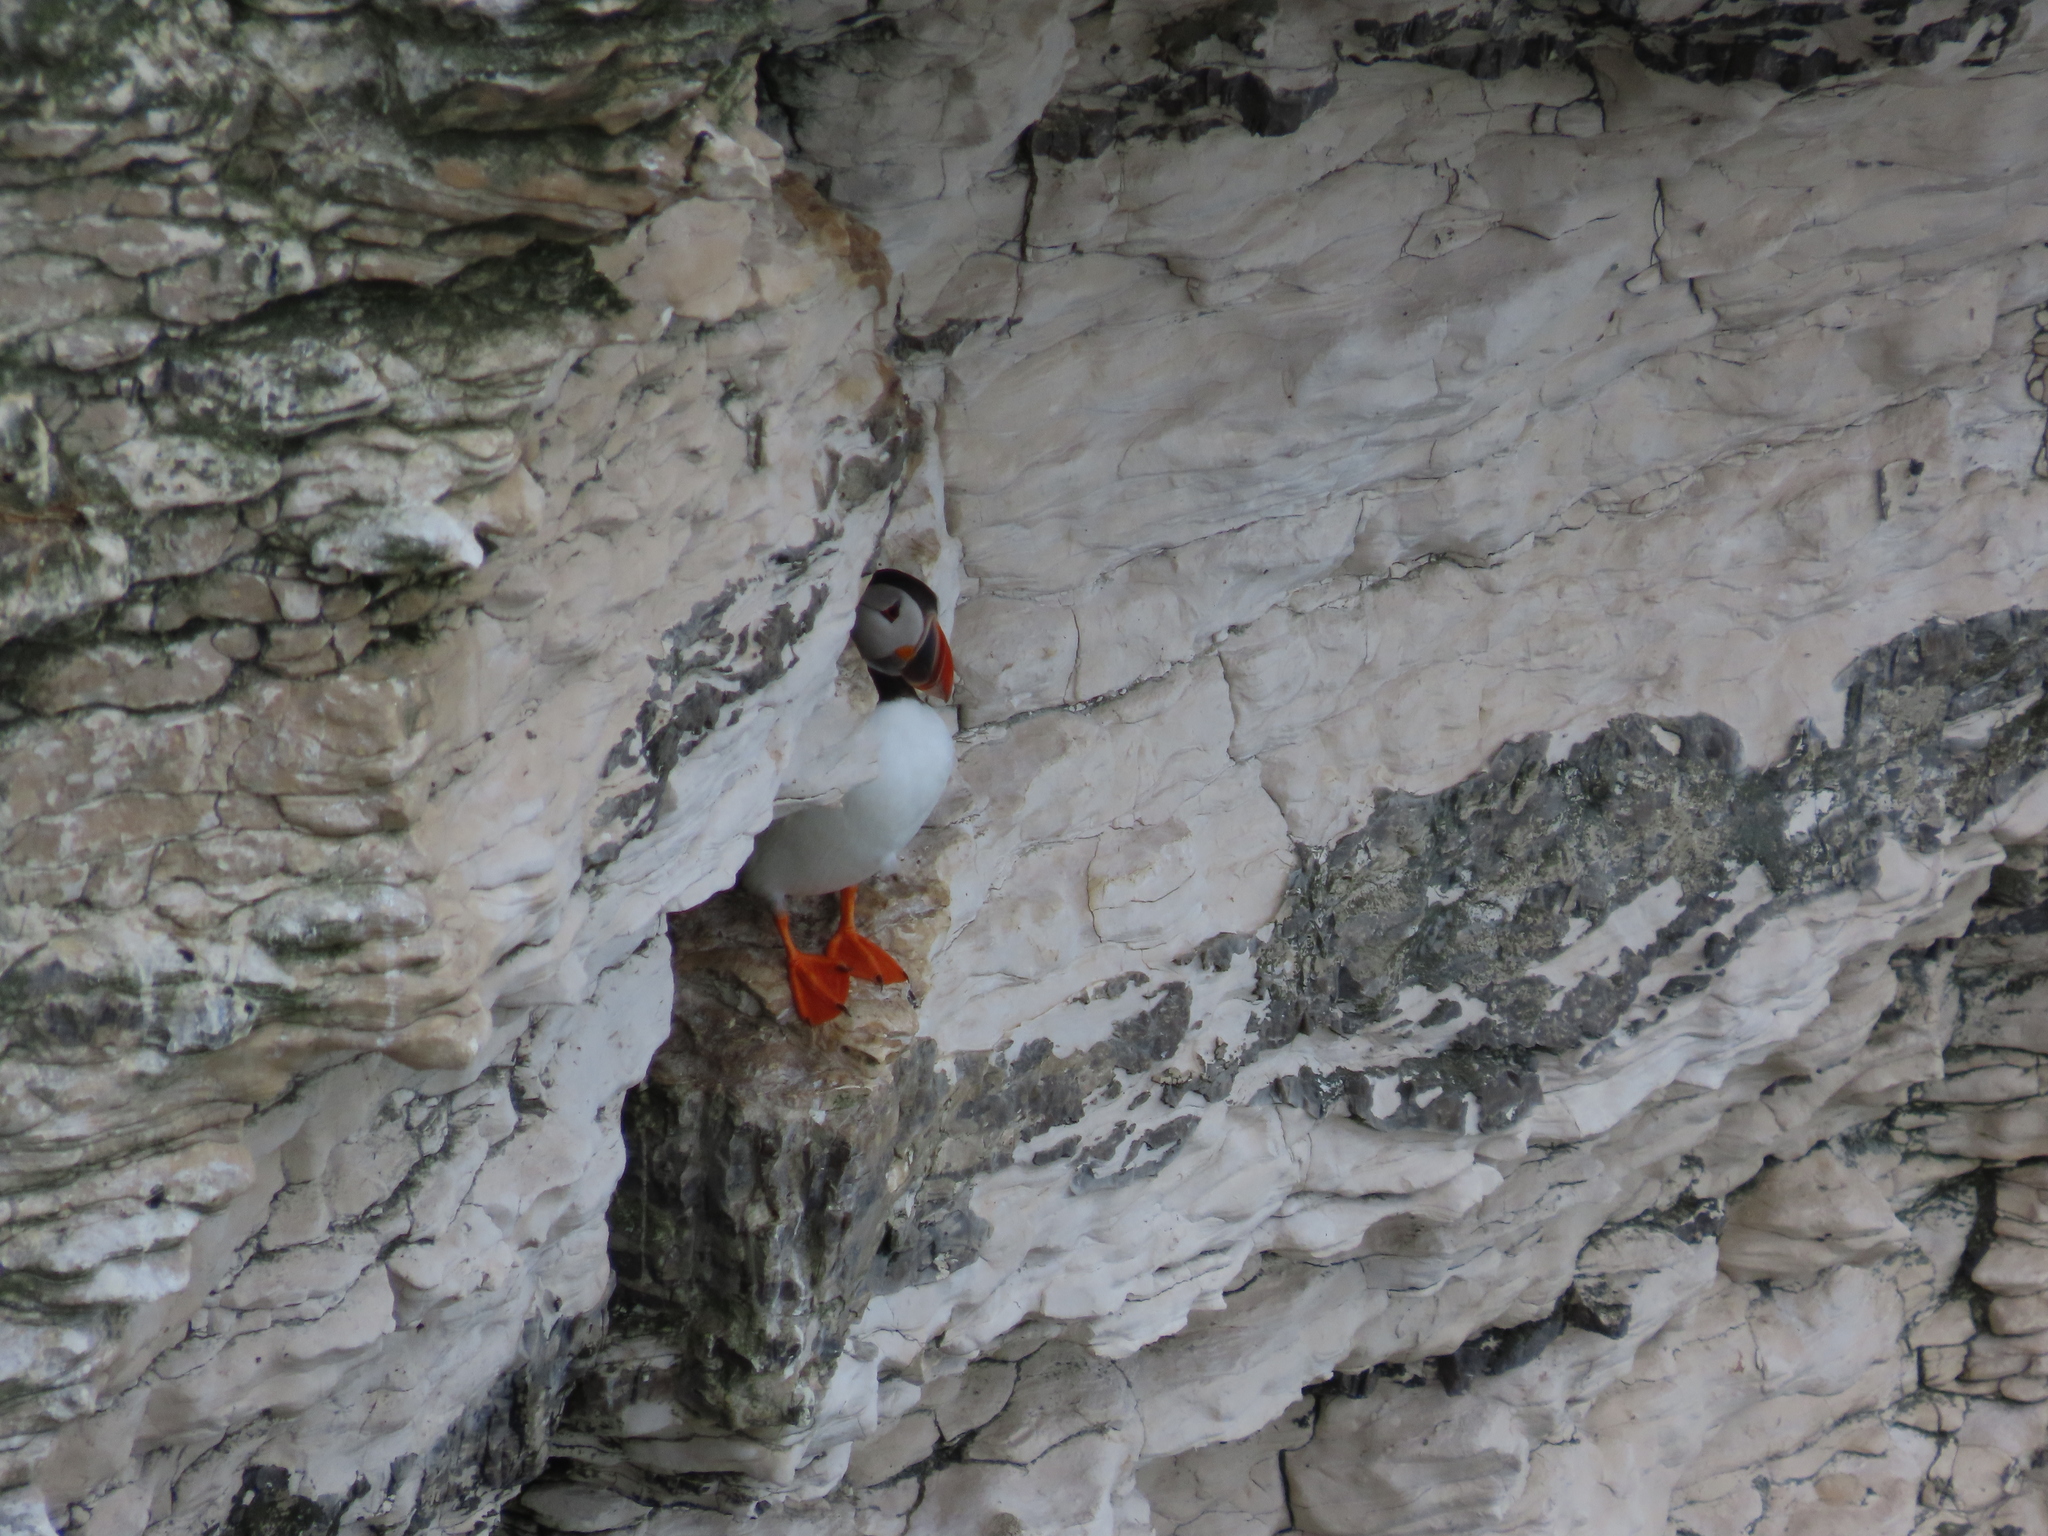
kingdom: Animalia
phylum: Chordata
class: Aves
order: Charadriiformes
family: Alcidae
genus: Fratercula
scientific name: Fratercula arctica
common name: Atlantic puffin
